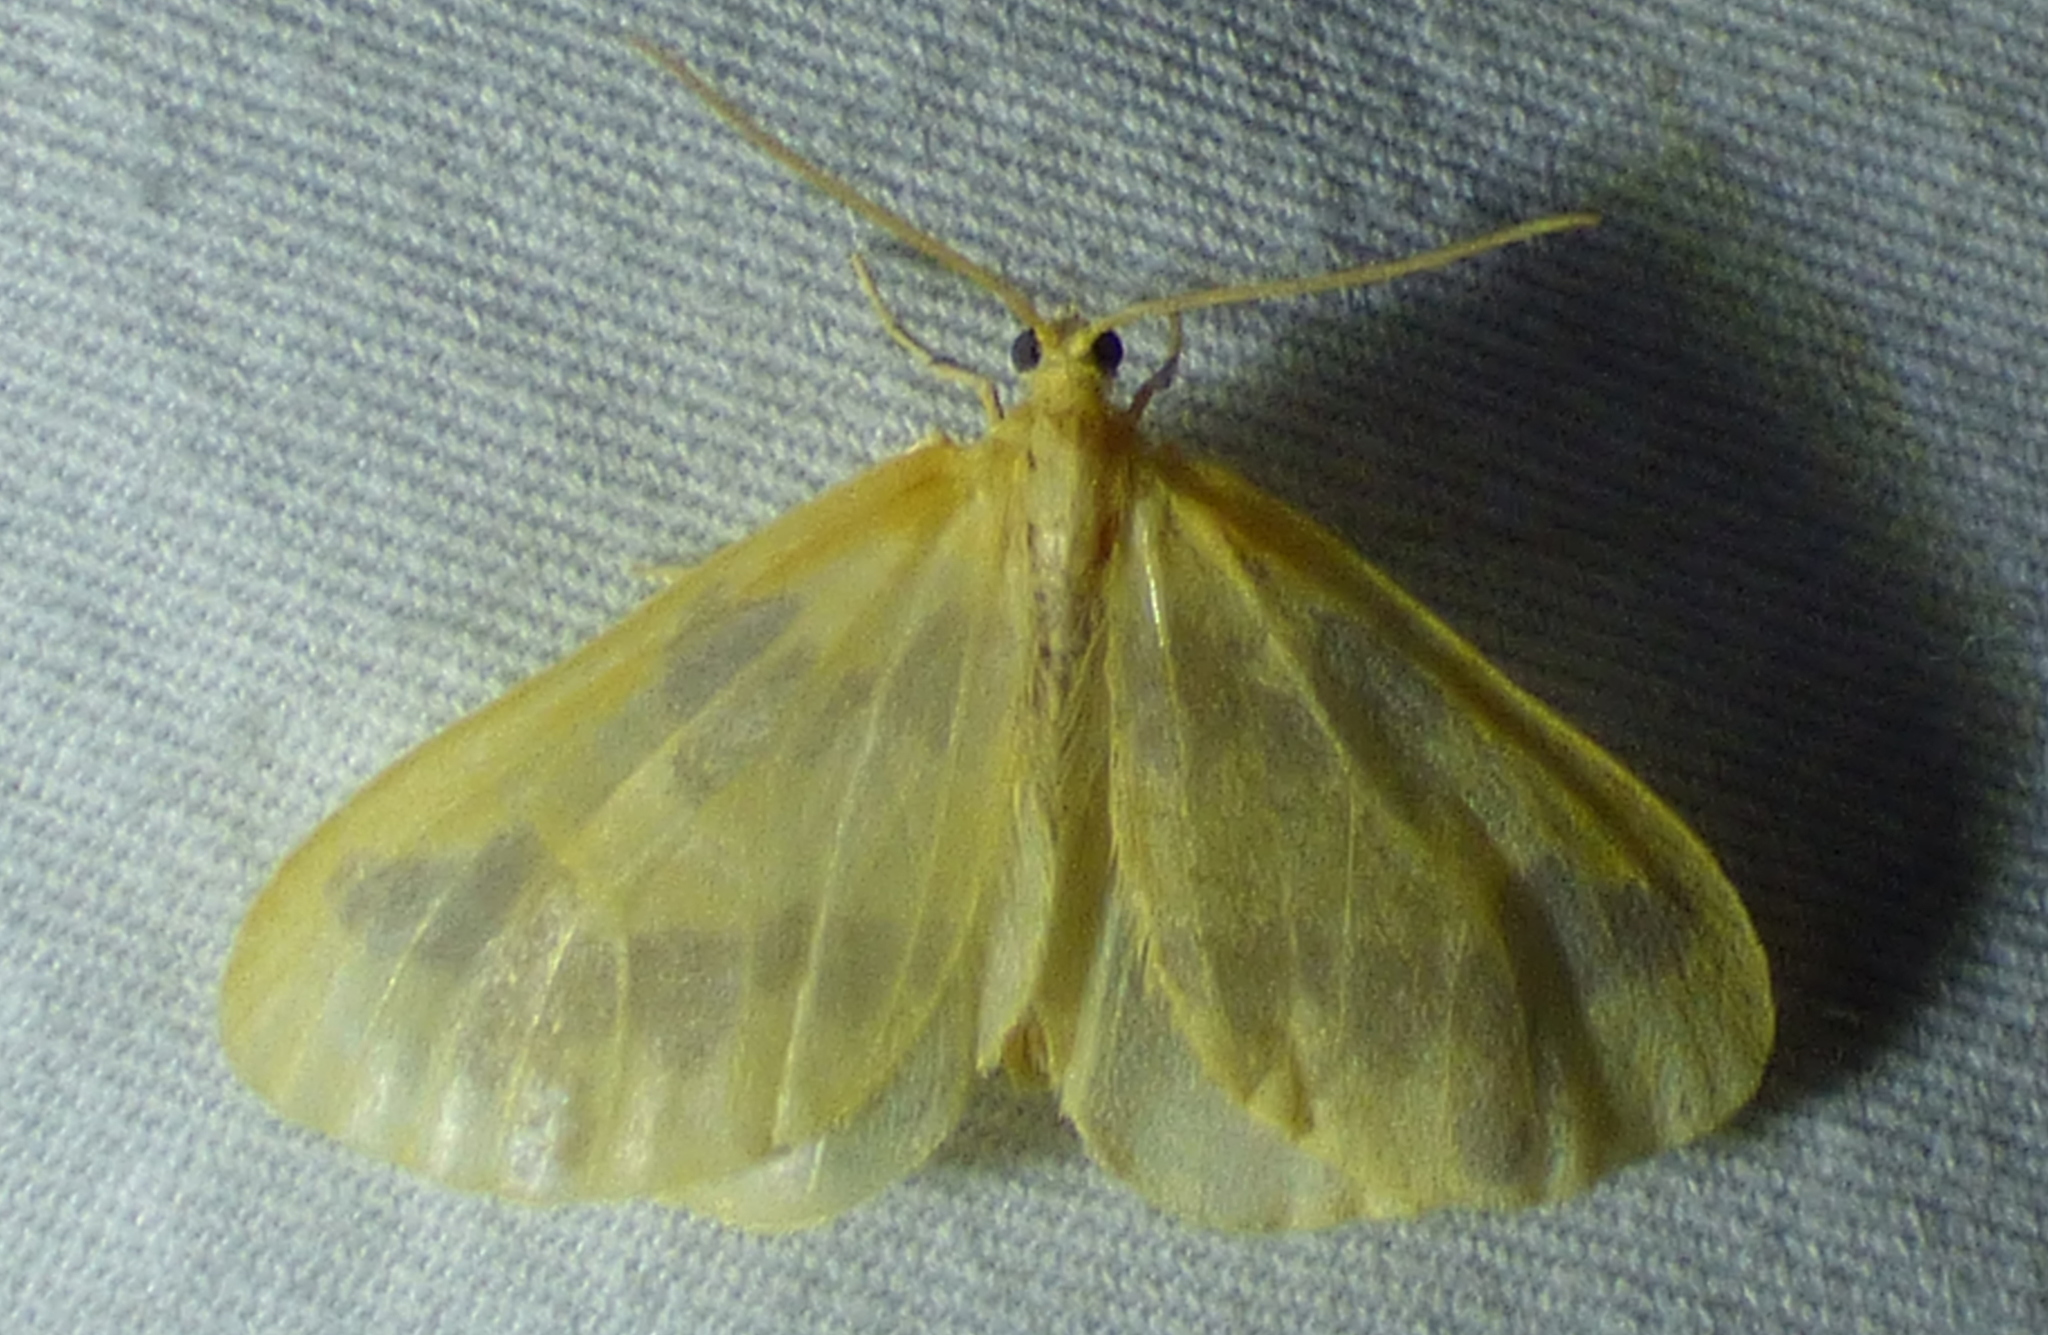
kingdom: Animalia
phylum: Arthropoda
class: Insecta
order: Lepidoptera
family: Geometridae
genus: Eubaphe
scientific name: Eubaphe mendica
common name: Beggar
